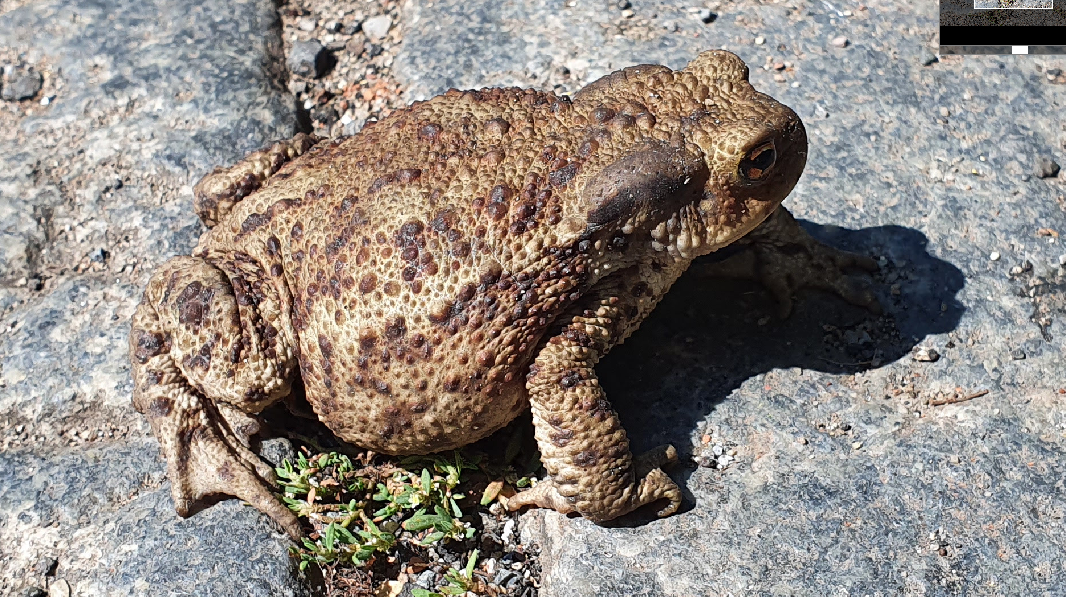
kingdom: Animalia
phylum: Chordata
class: Amphibia
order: Anura
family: Bufonidae
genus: Bufo
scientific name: Bufo bufo
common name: Common toad
